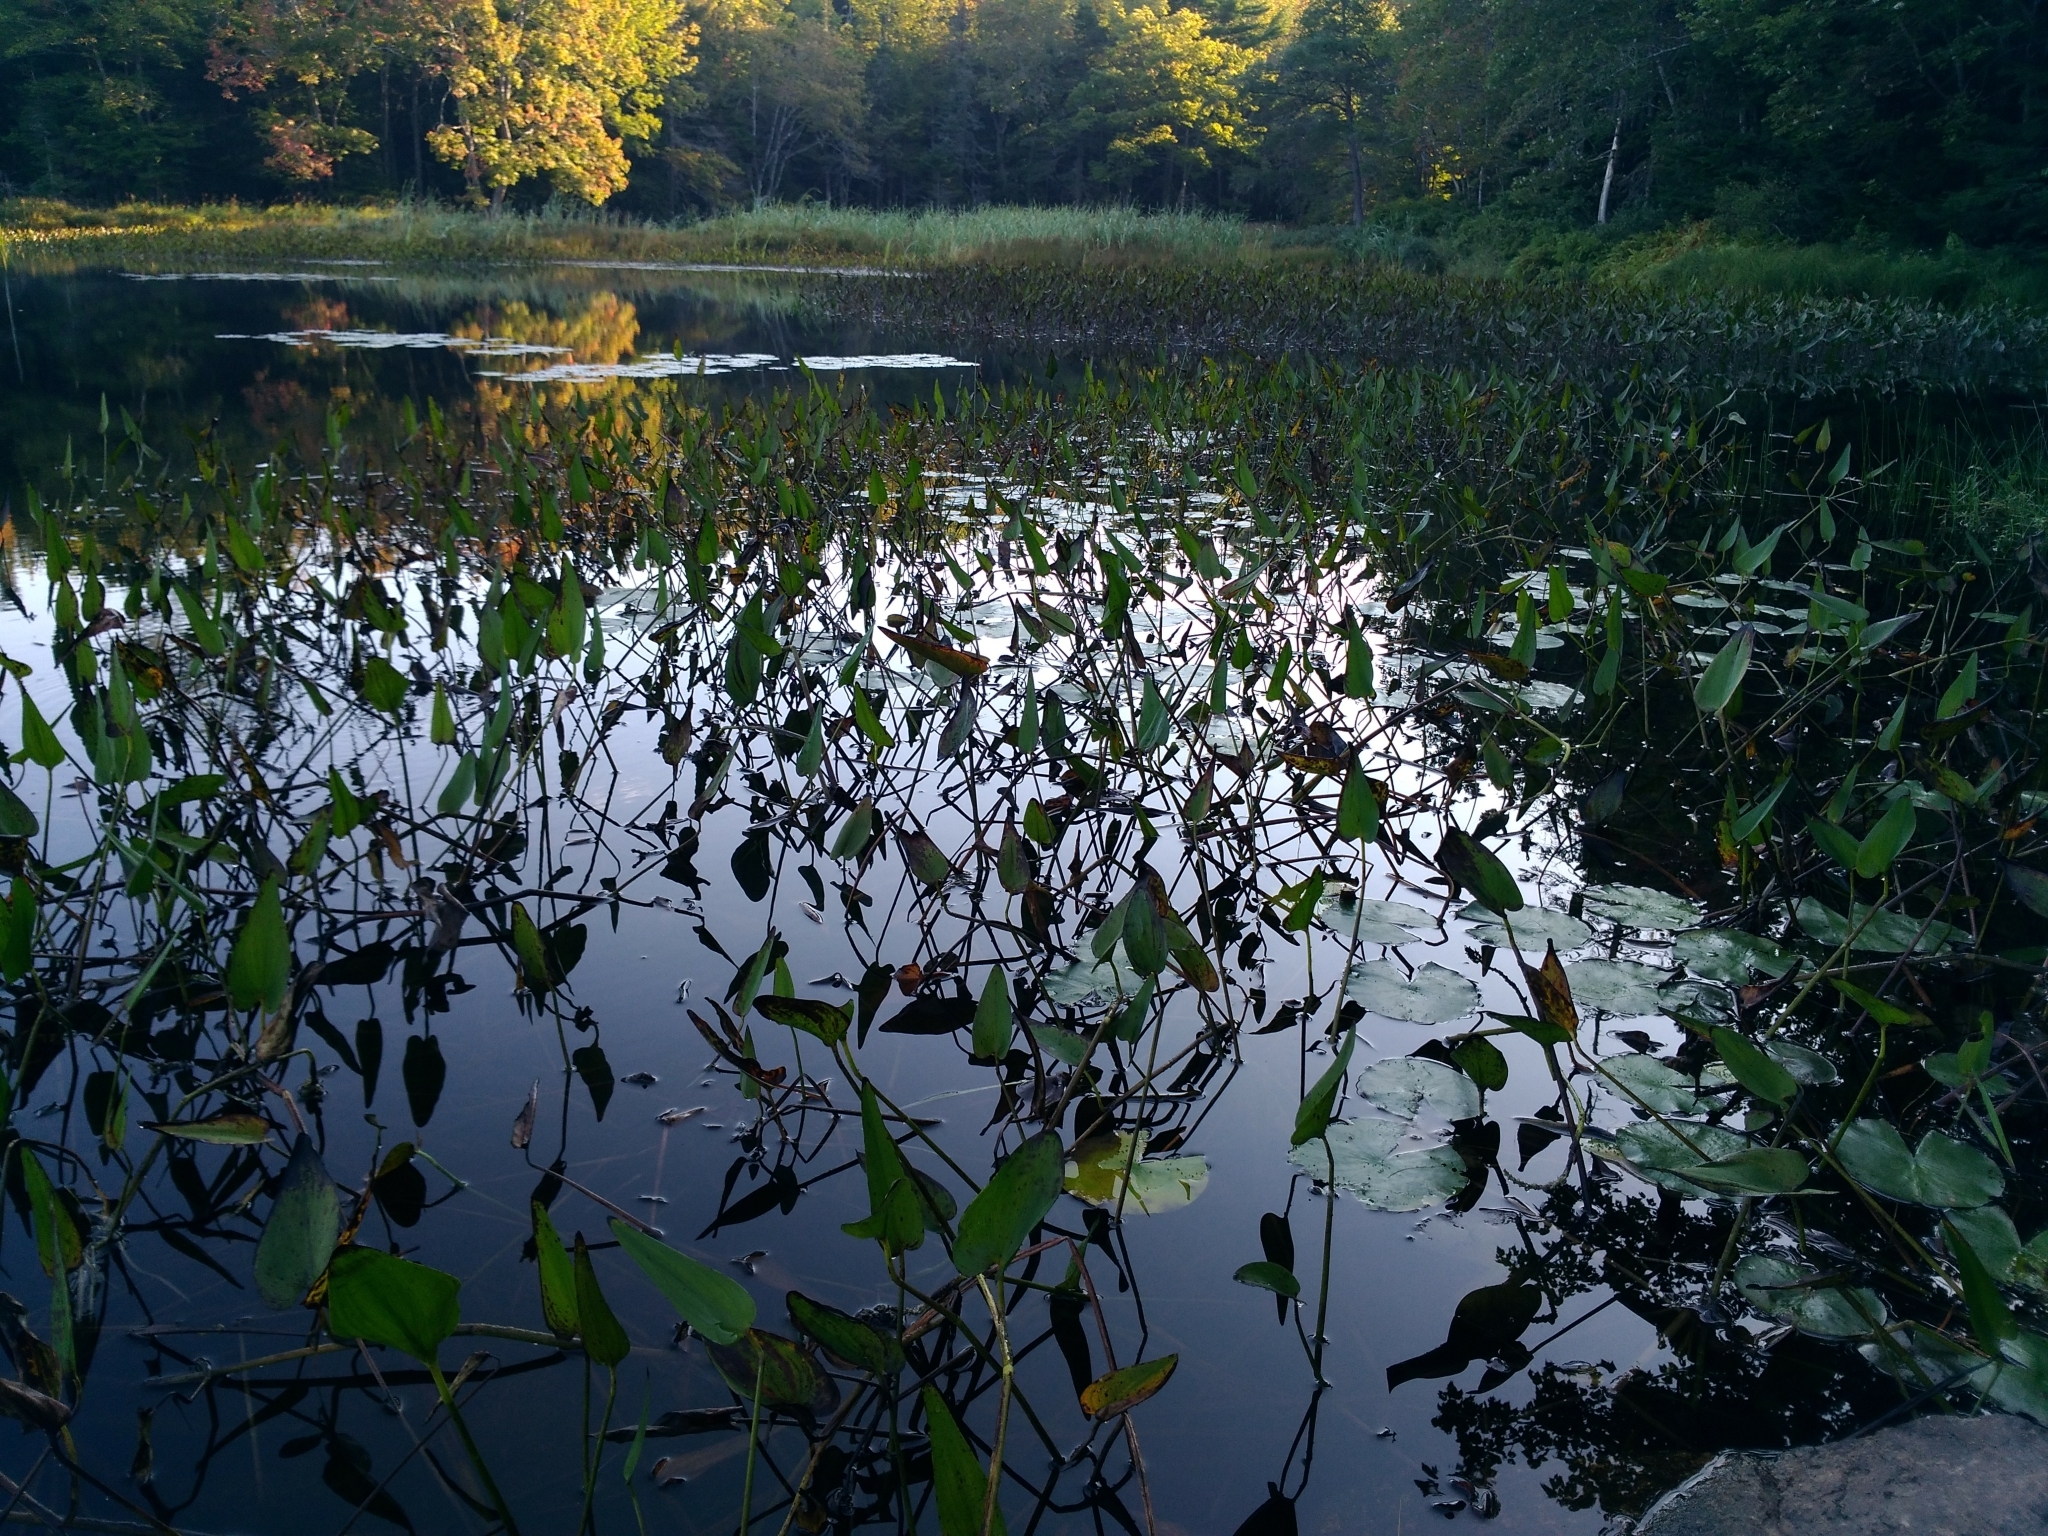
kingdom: Plantae
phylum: Tracheophyta
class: Liliopsida
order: Commelinales
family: Pontederiaceae
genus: Pontederia
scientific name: Pontederia cordata
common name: Pickerelweed
